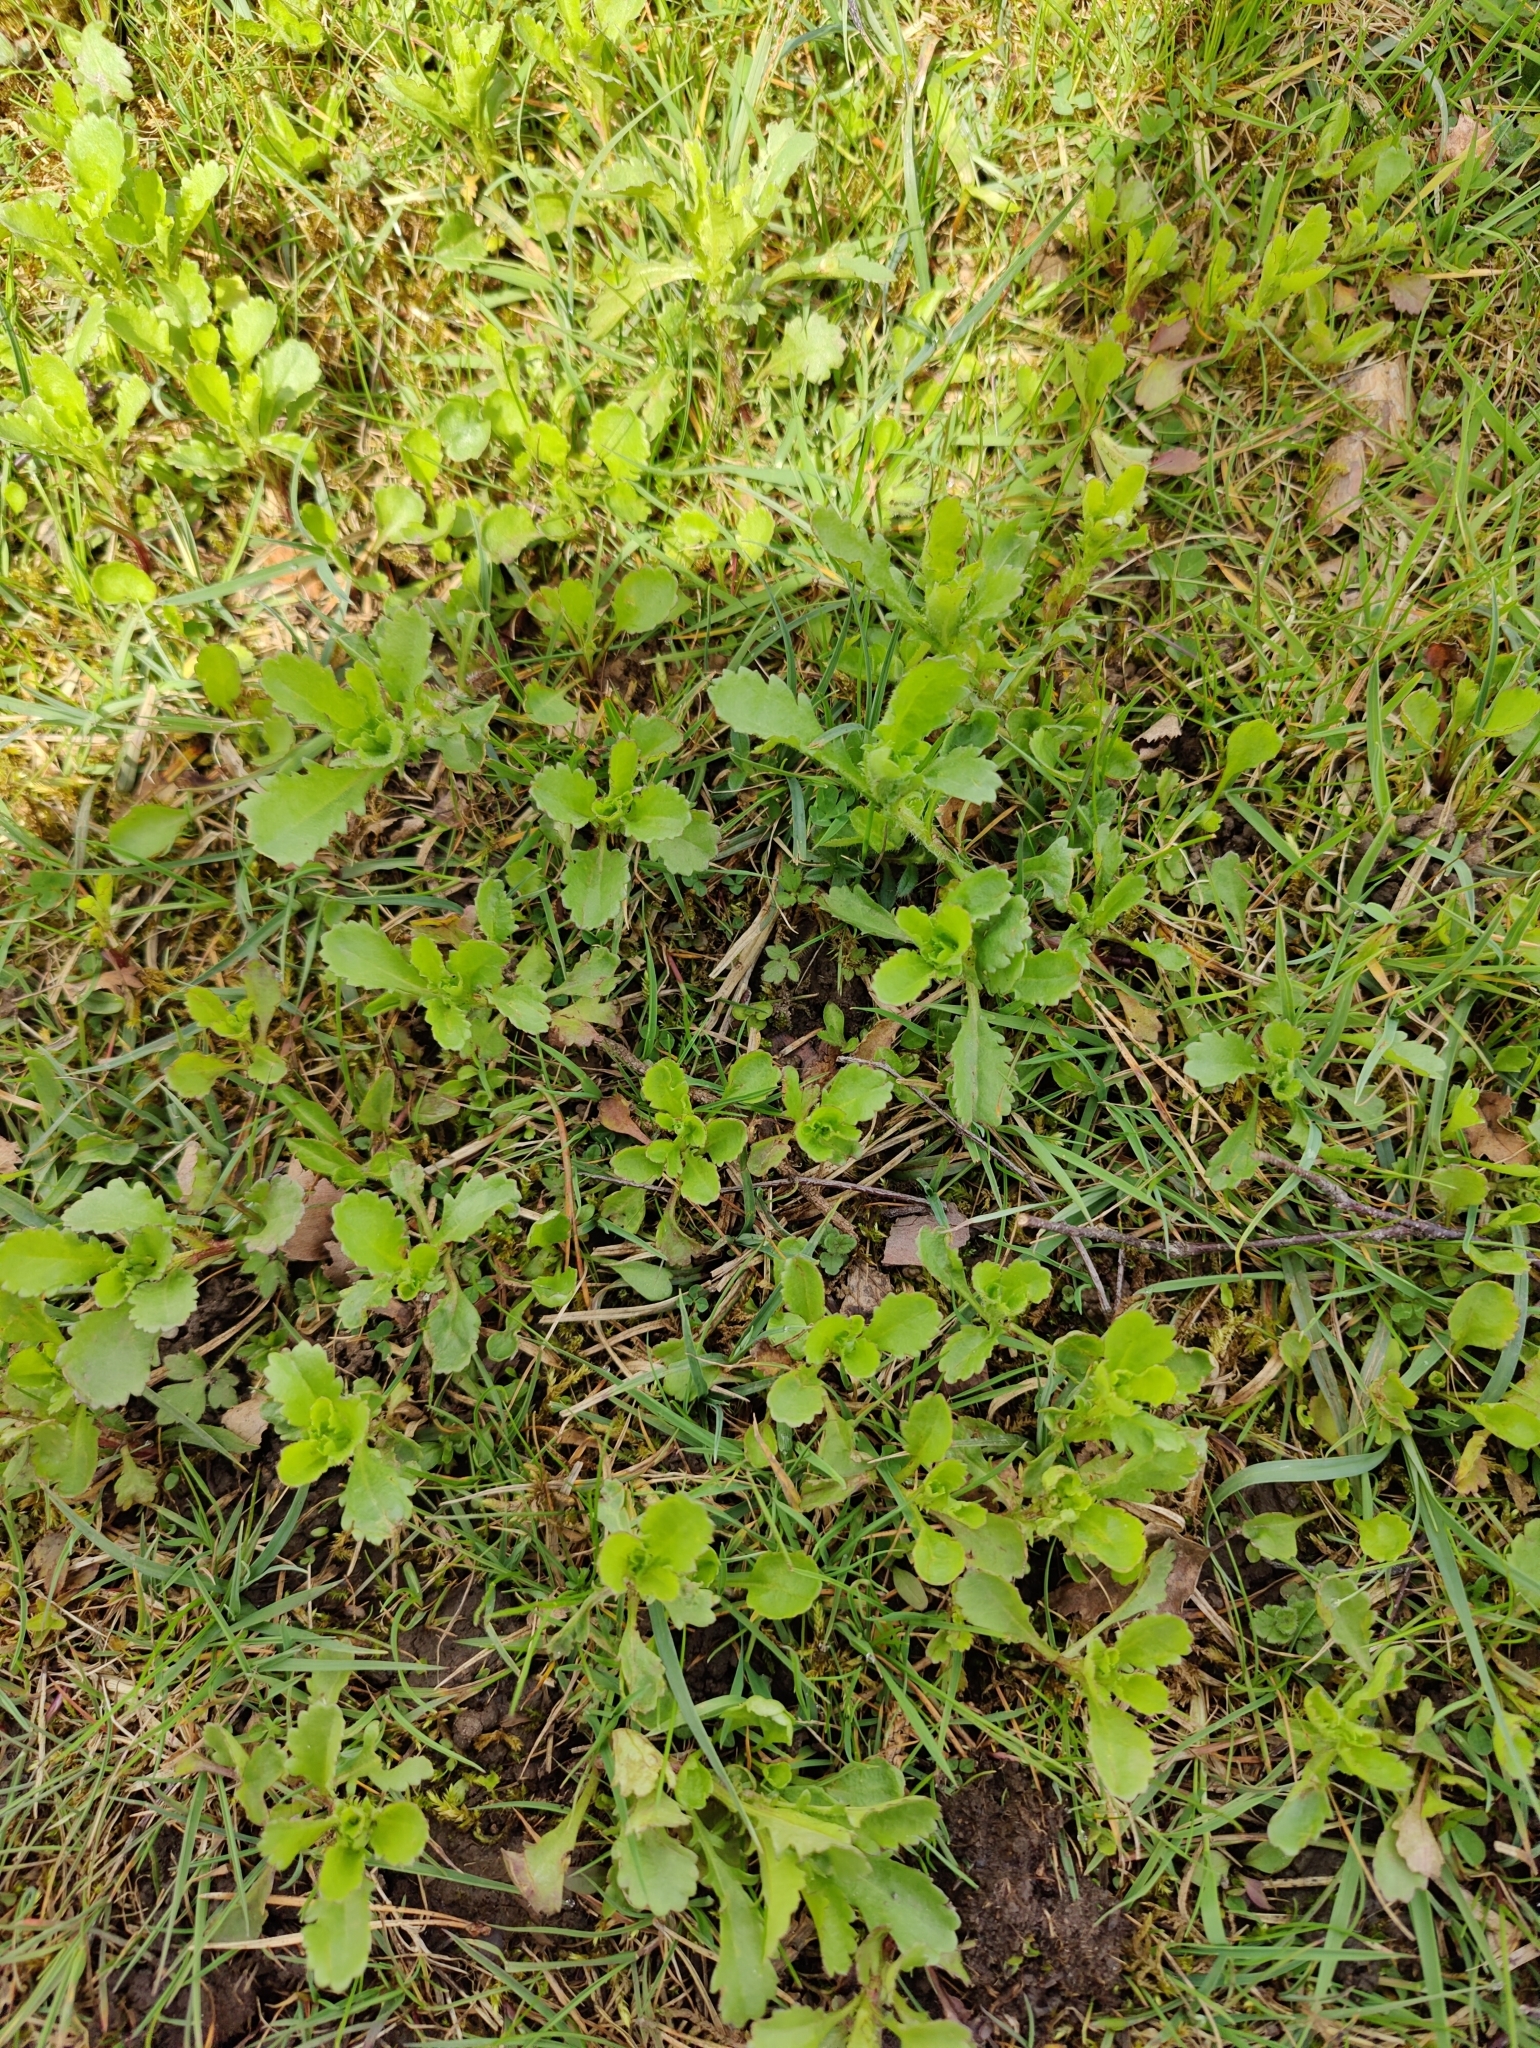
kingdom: Plantae
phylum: Tracheophyta
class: Magnoliopsida
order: Asterales
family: Asteraceae
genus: Leucanthemum
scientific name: Leucanthemum vulgare
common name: Oxeye daisy
